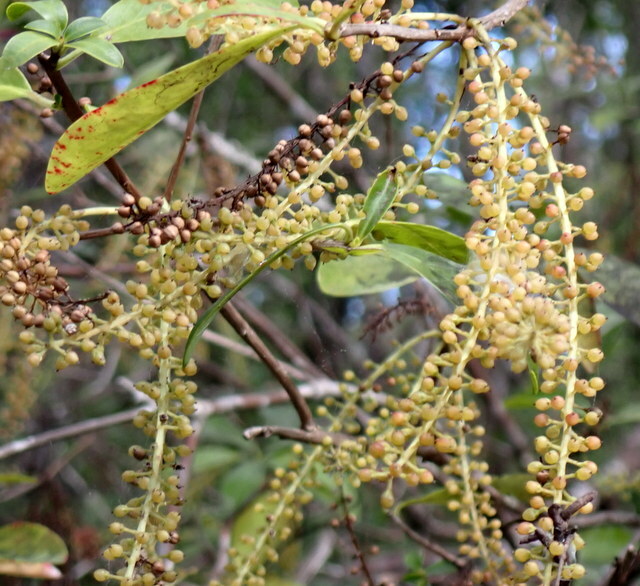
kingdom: Plantae
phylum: Tracheophyta
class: Magnoliopsida
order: Ericales
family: Cyrillaceae
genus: Cyrilla
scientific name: Cyrilla racemiflora
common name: Black titi
